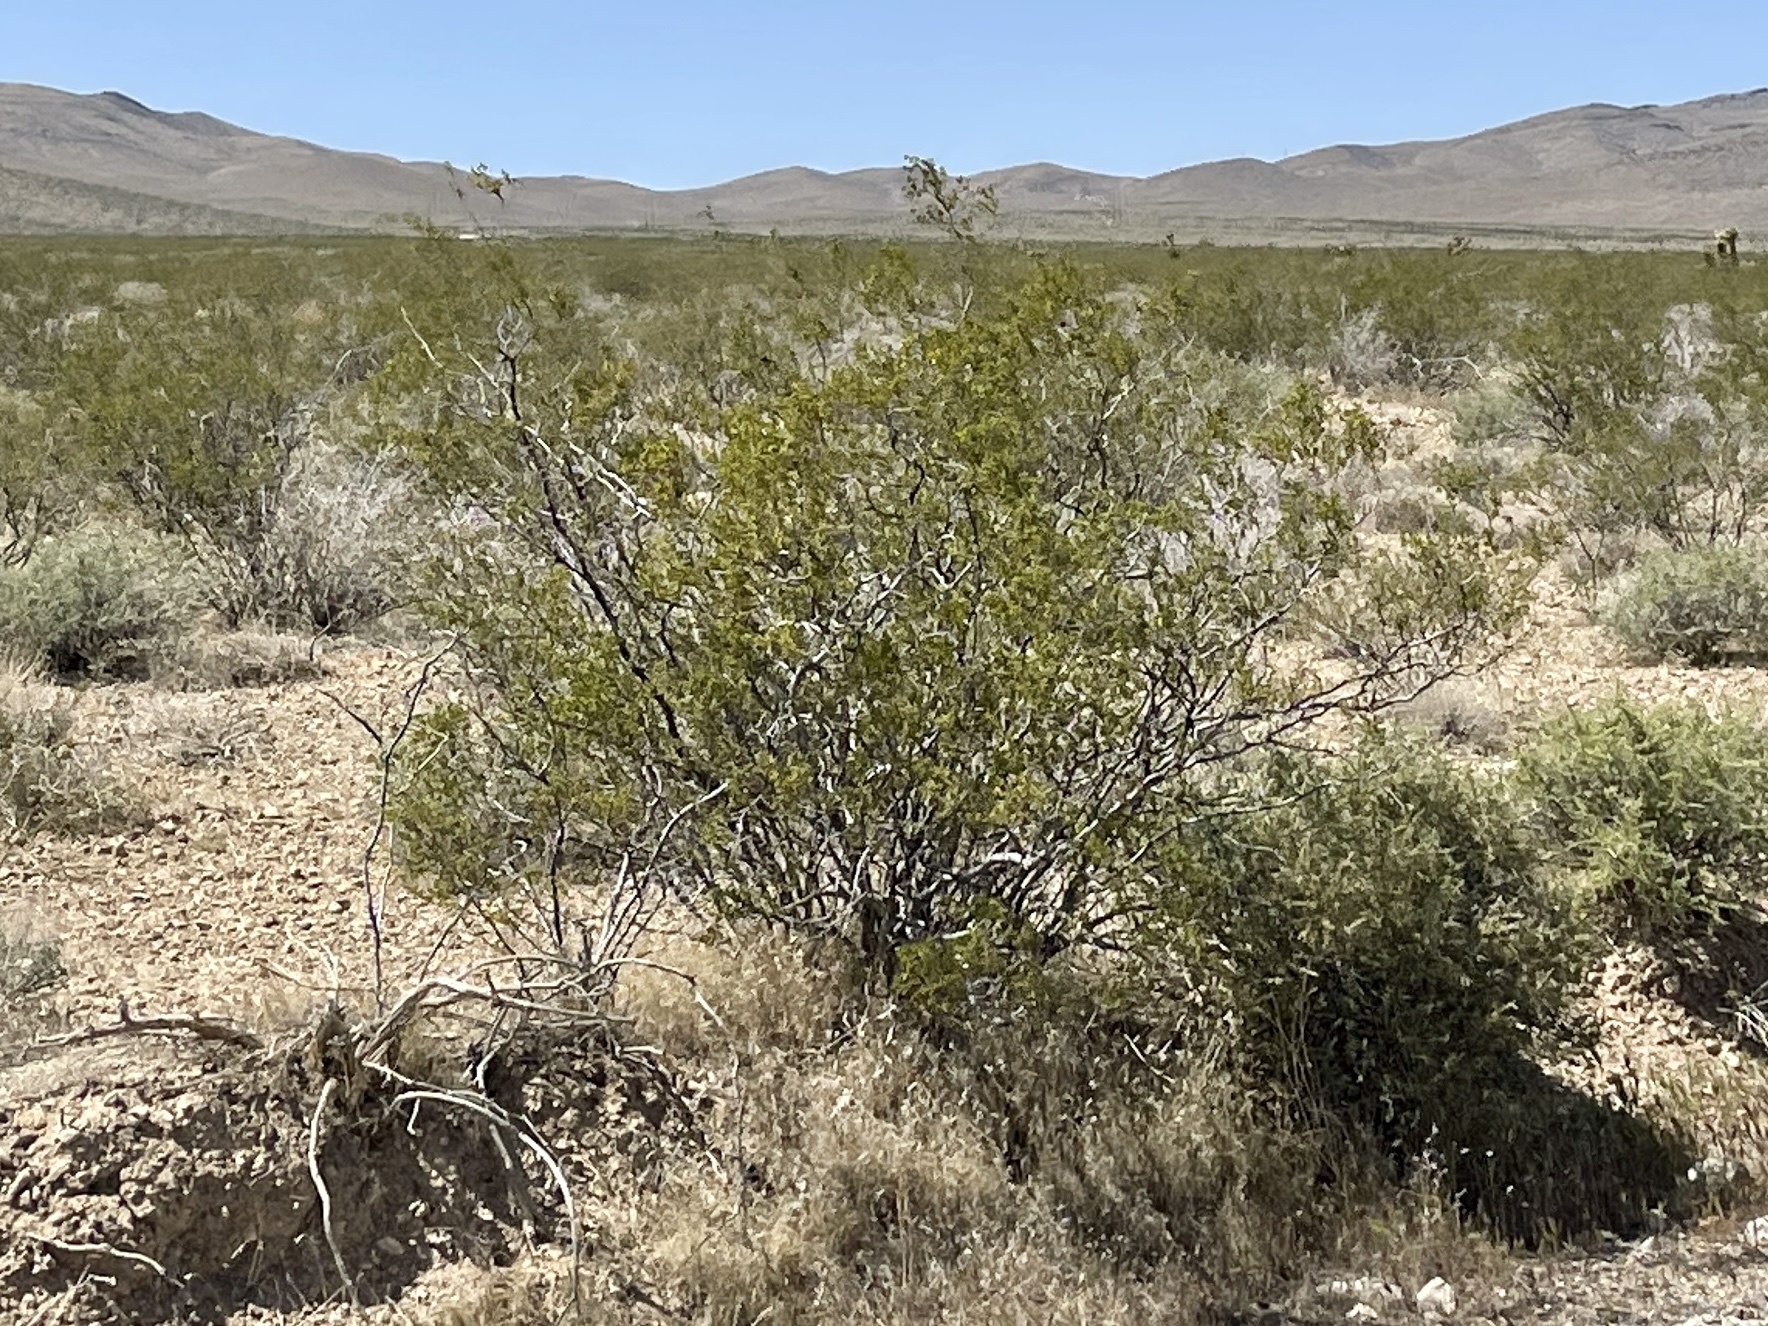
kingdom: Plantae
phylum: Tracheophyta
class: Magnoliopsida
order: Zygophyllales
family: Zygophyllaceae
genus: Larrea
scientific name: Larrea tridentata
